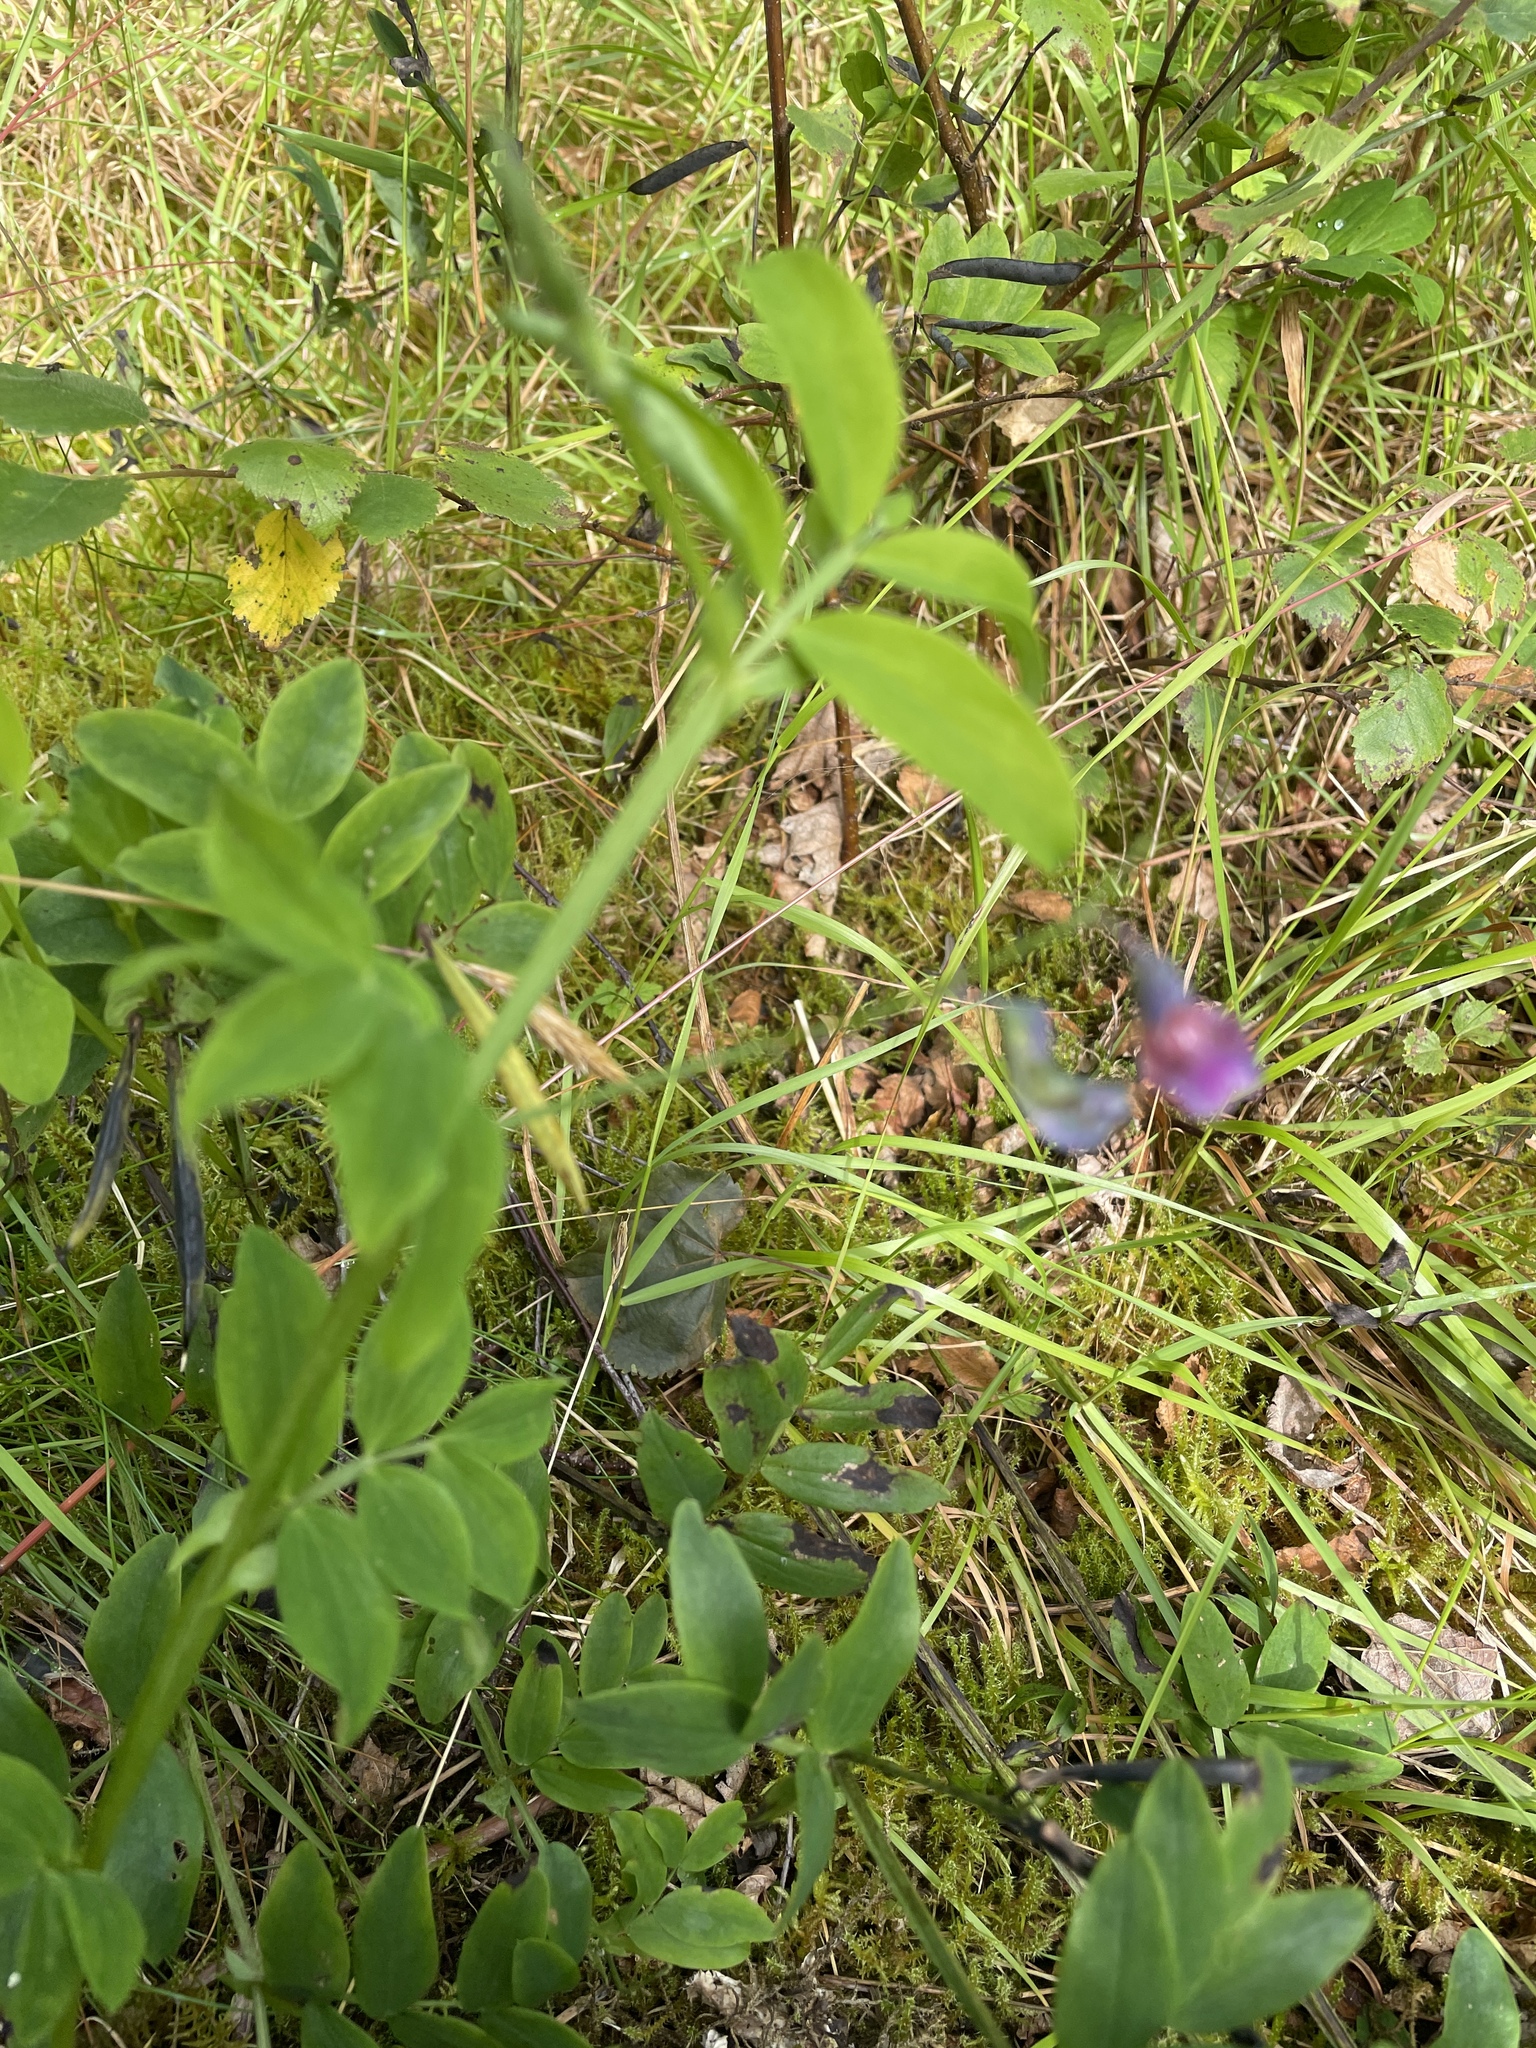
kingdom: Plantae
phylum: Tracheophyta
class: Magnoliopsida
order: Fabales
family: Fabaceae
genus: Lathyrus
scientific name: Lathyrus linifolius
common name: Bitter-vetch
